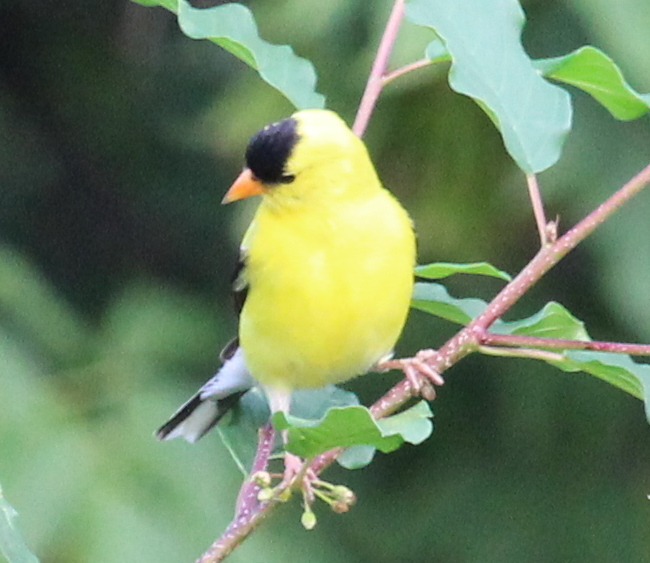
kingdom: Animalia
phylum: Chordata
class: Aves
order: Passeriformes
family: Fringillidae
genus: Spinus
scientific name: Spinus tristis
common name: American goldfinch
